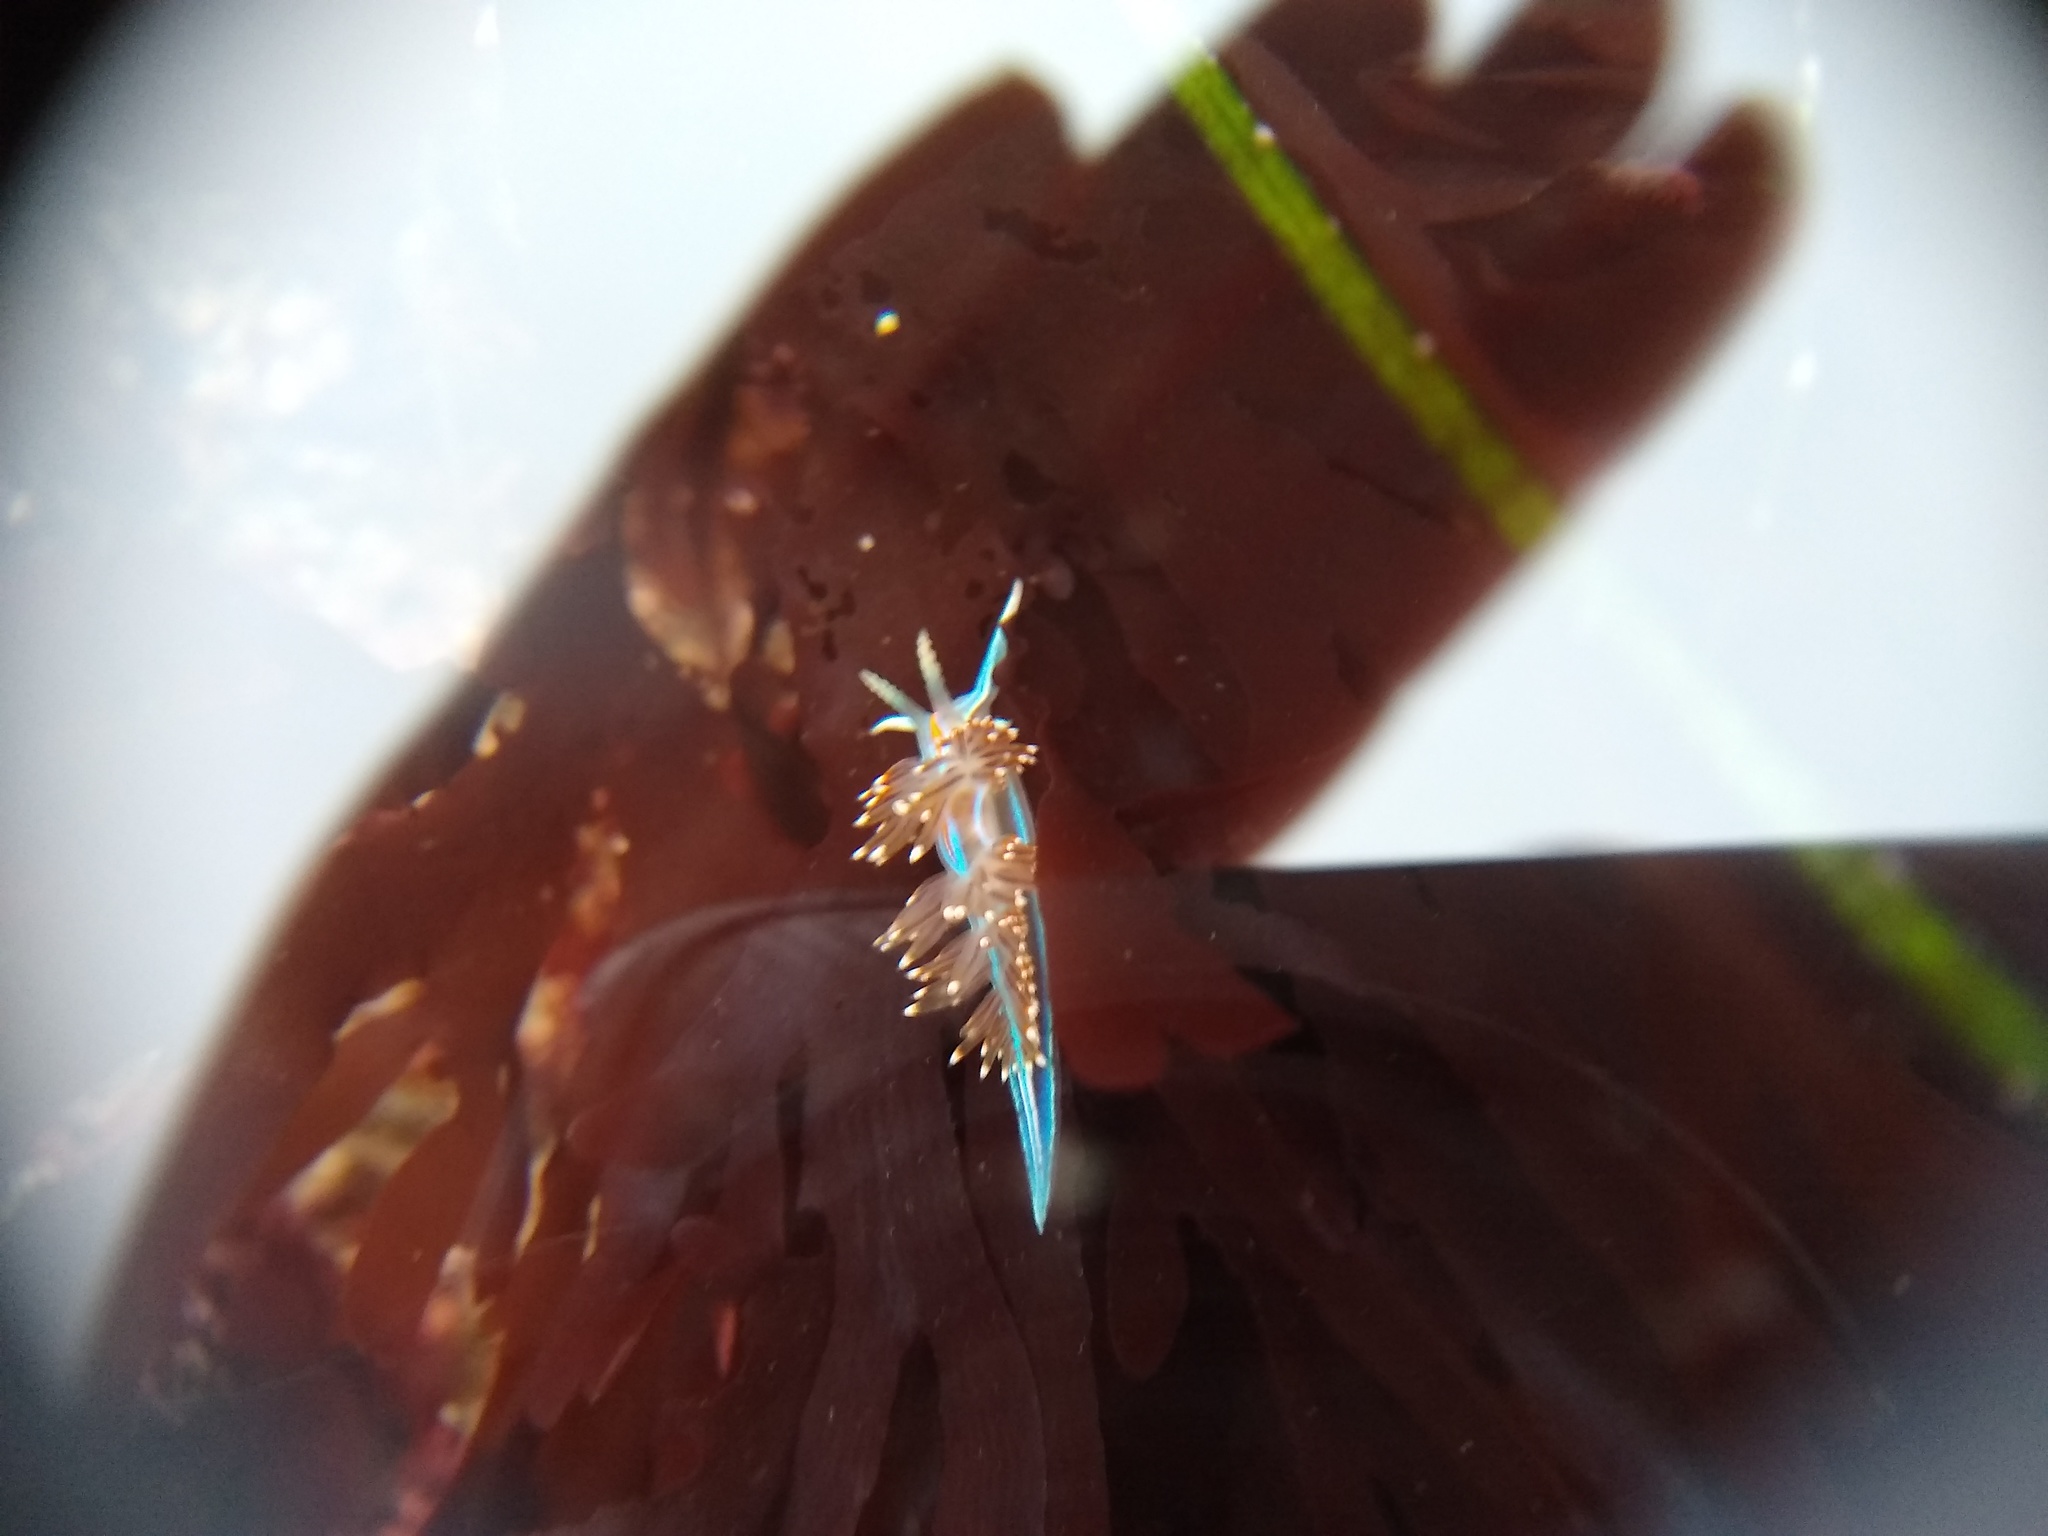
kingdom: Animalia
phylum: Mollusca
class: Gastropoda
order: Nudibranchia
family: Myrrhinidae
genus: Hermissenda
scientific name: Hermissenda opalescens
